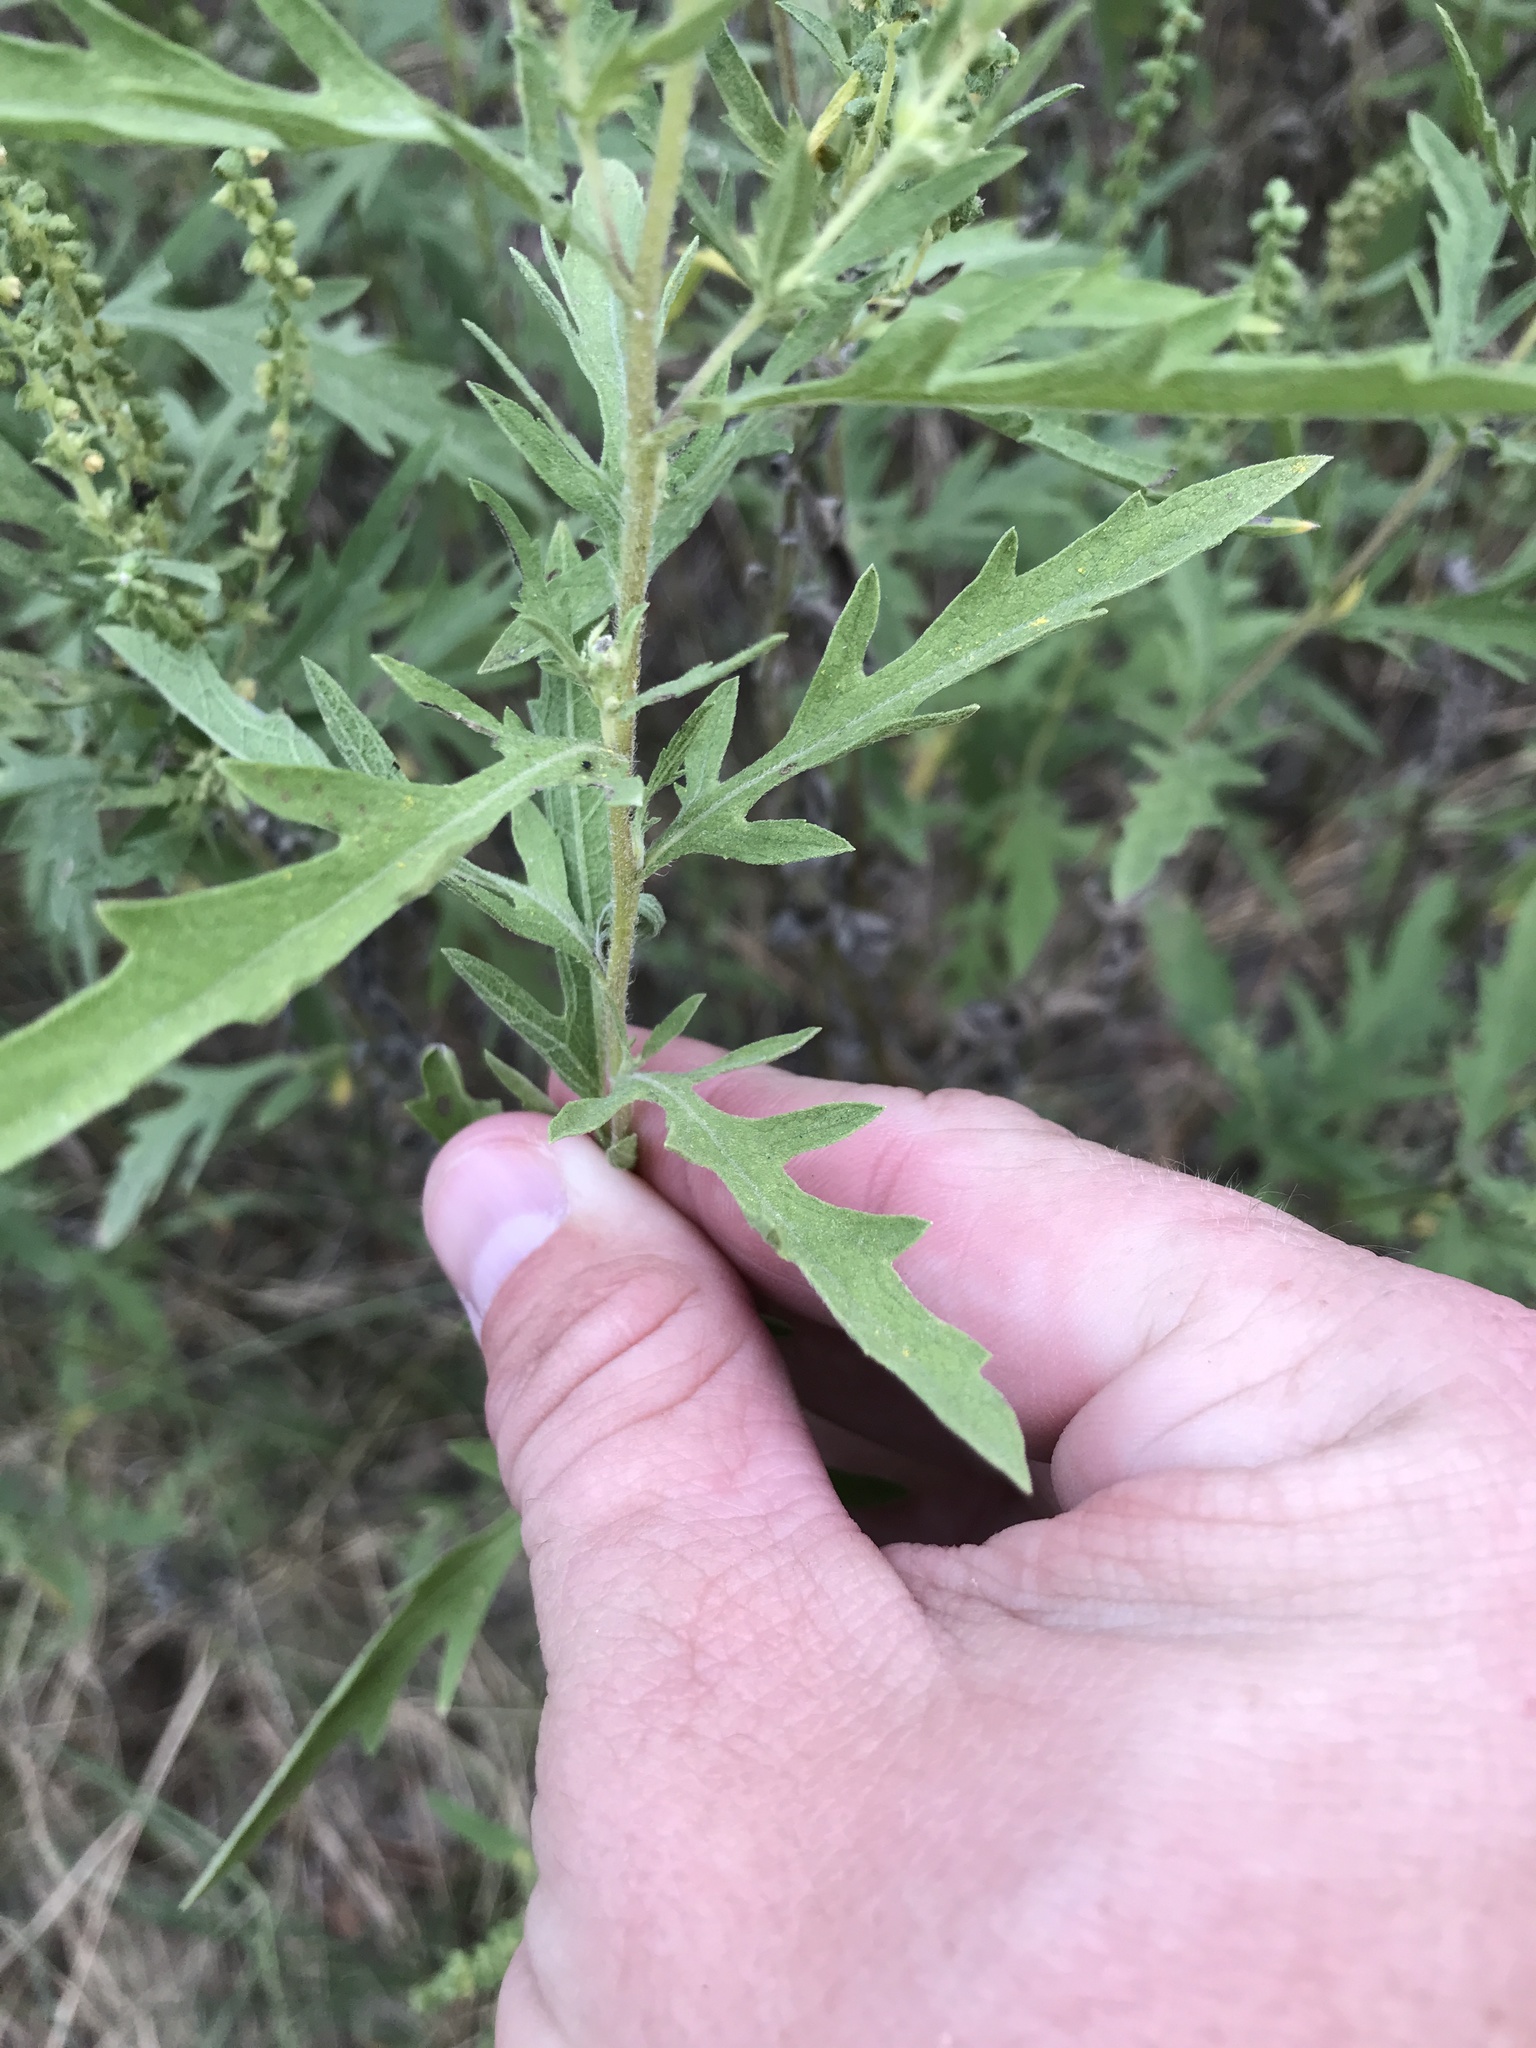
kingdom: Plantae
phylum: Tracheophyta
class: Magnoliopsida
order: Asterales
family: Asteraceae
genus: Ambrosia
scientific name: Ambrosia psilostachya
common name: Perennial ragweed
